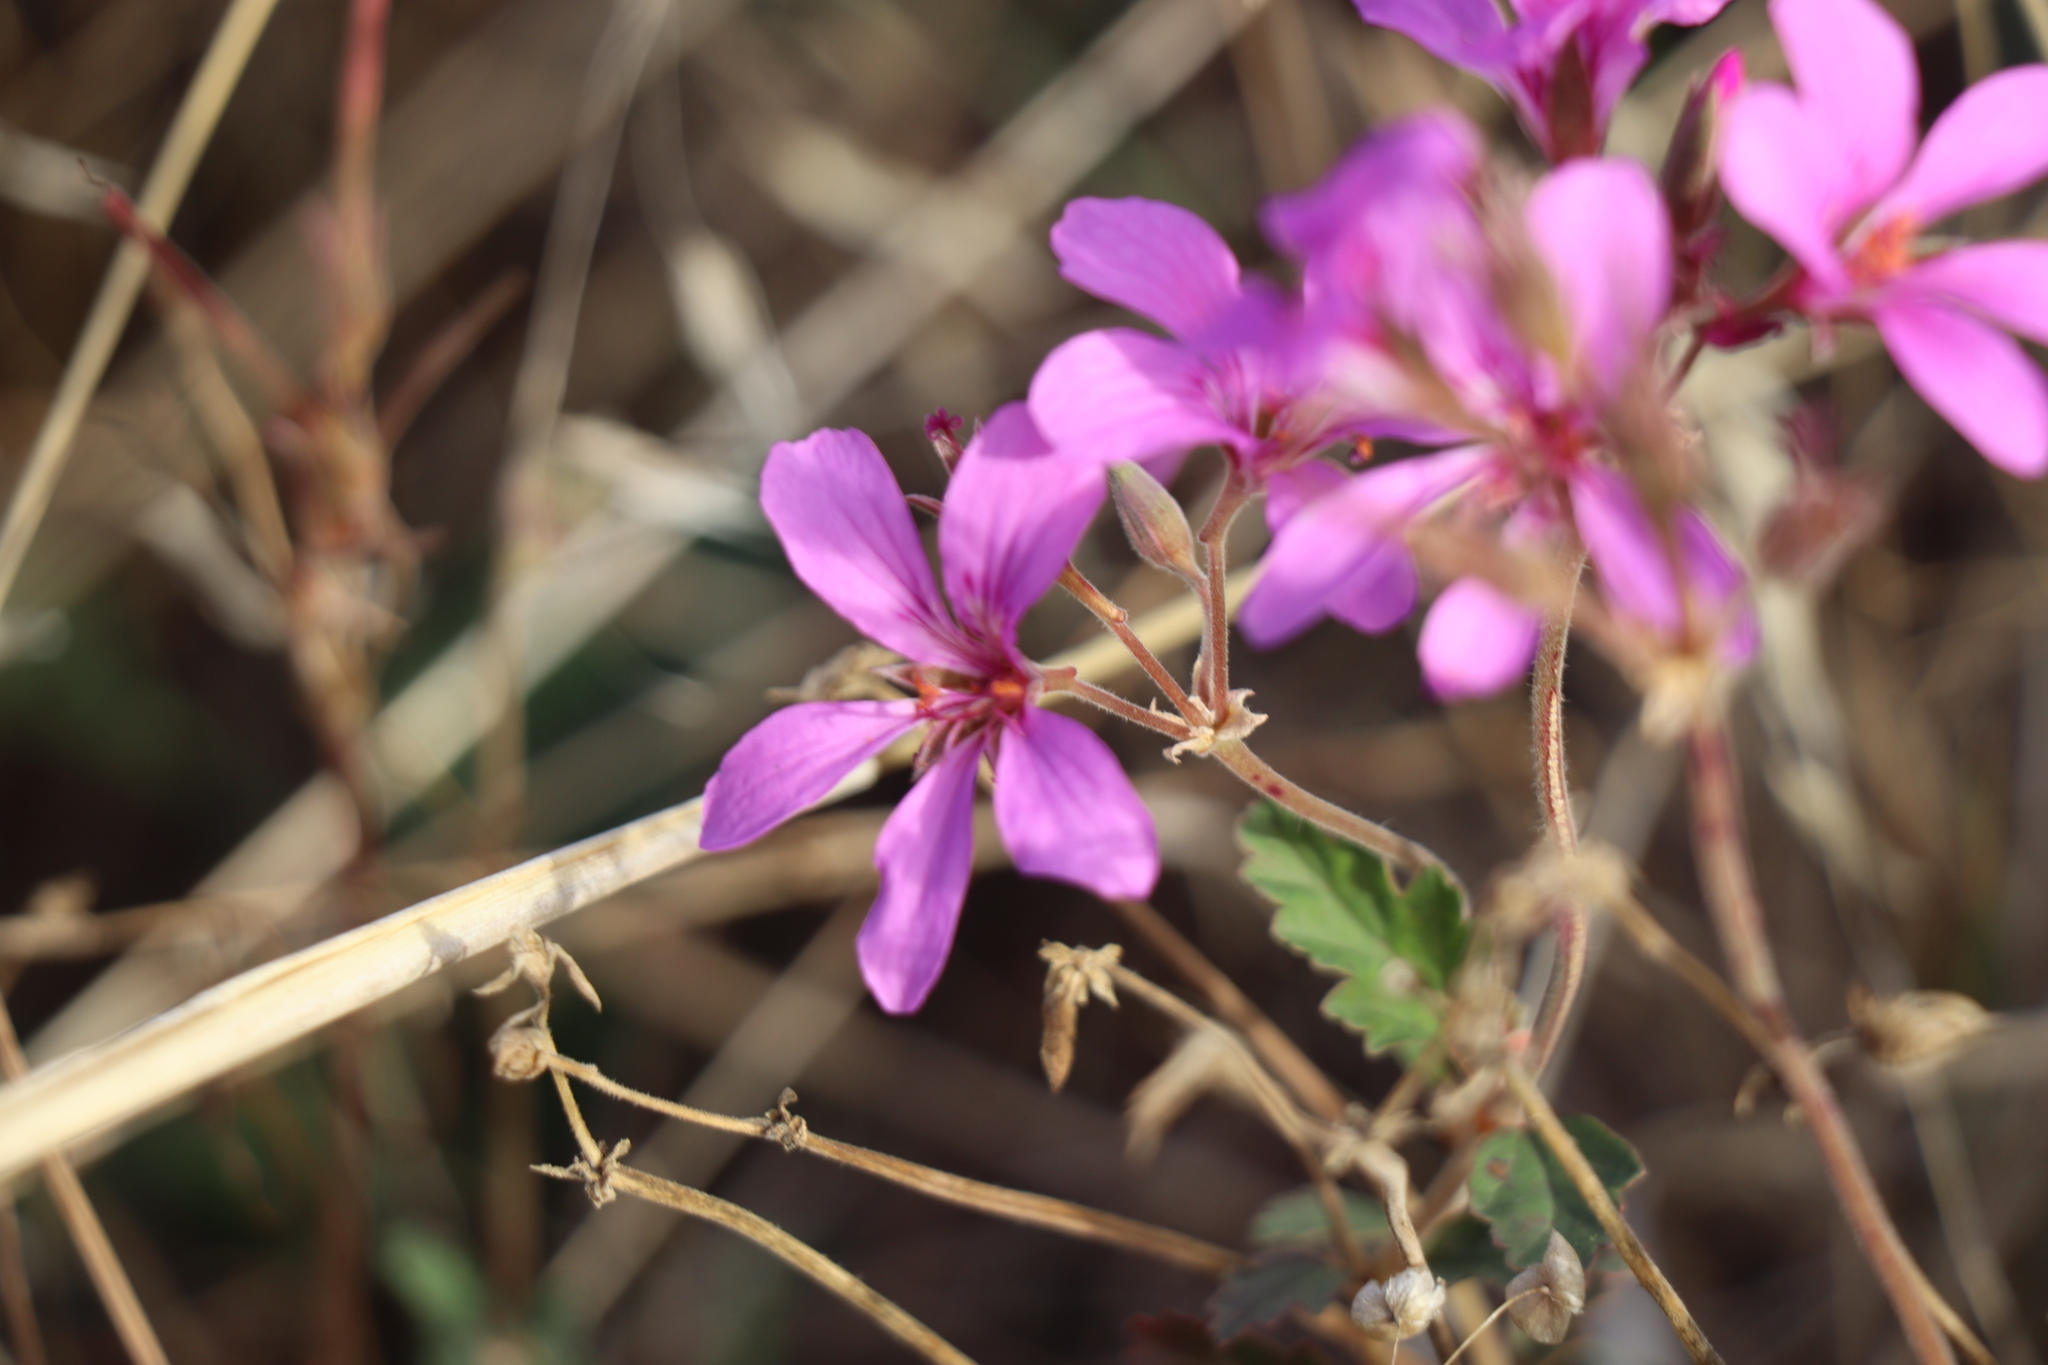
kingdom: Plantae
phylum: Tracheophyta
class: Magnoliopsida
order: Geraniales
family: Geraniaceae
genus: Pelargonium
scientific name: Pelargonium rodneyanum
